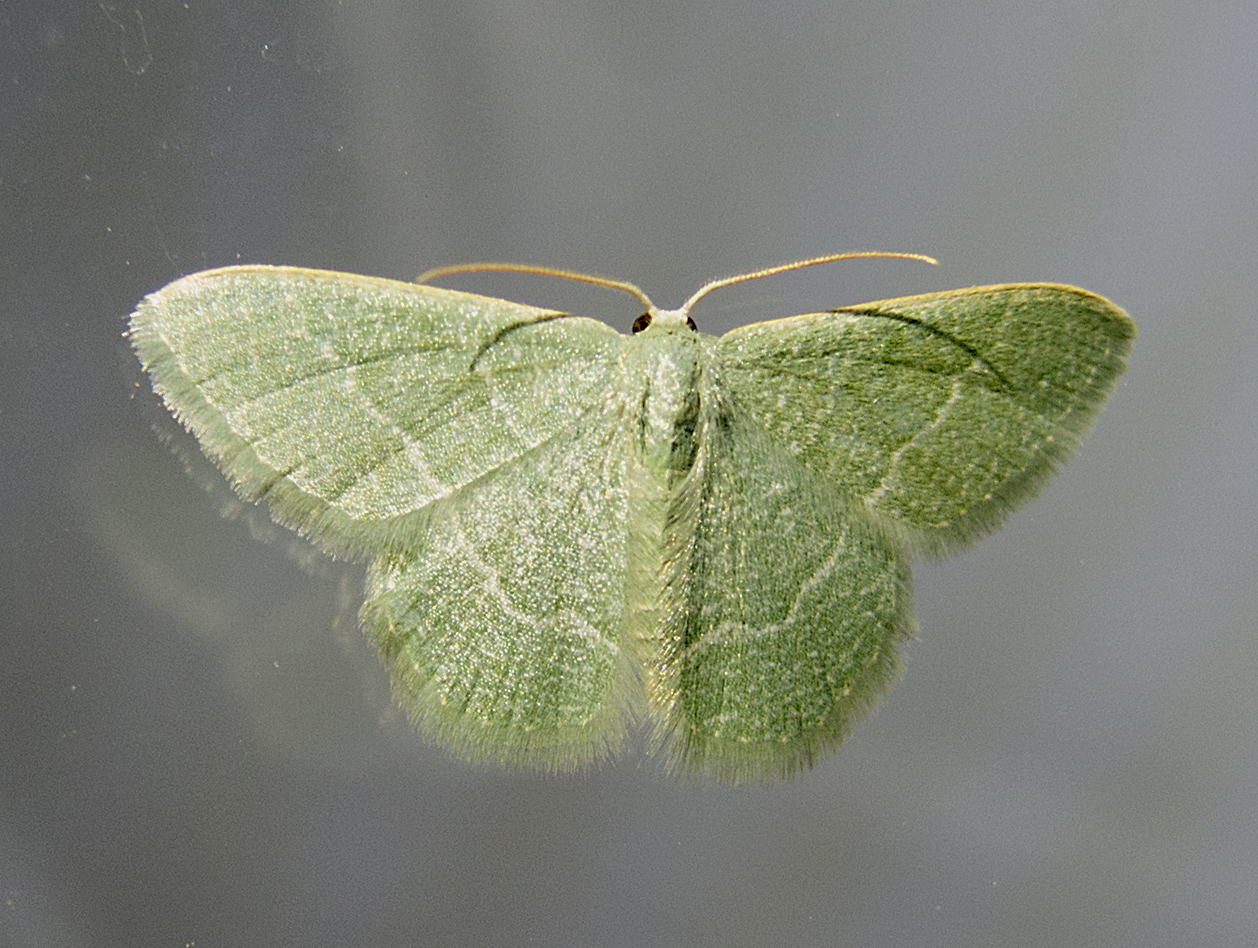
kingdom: Animalia
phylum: Arthropoda
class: Insecta
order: Lepidoptera
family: Geometridae
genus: Chlorissa
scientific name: Chlorissa etruscaria
